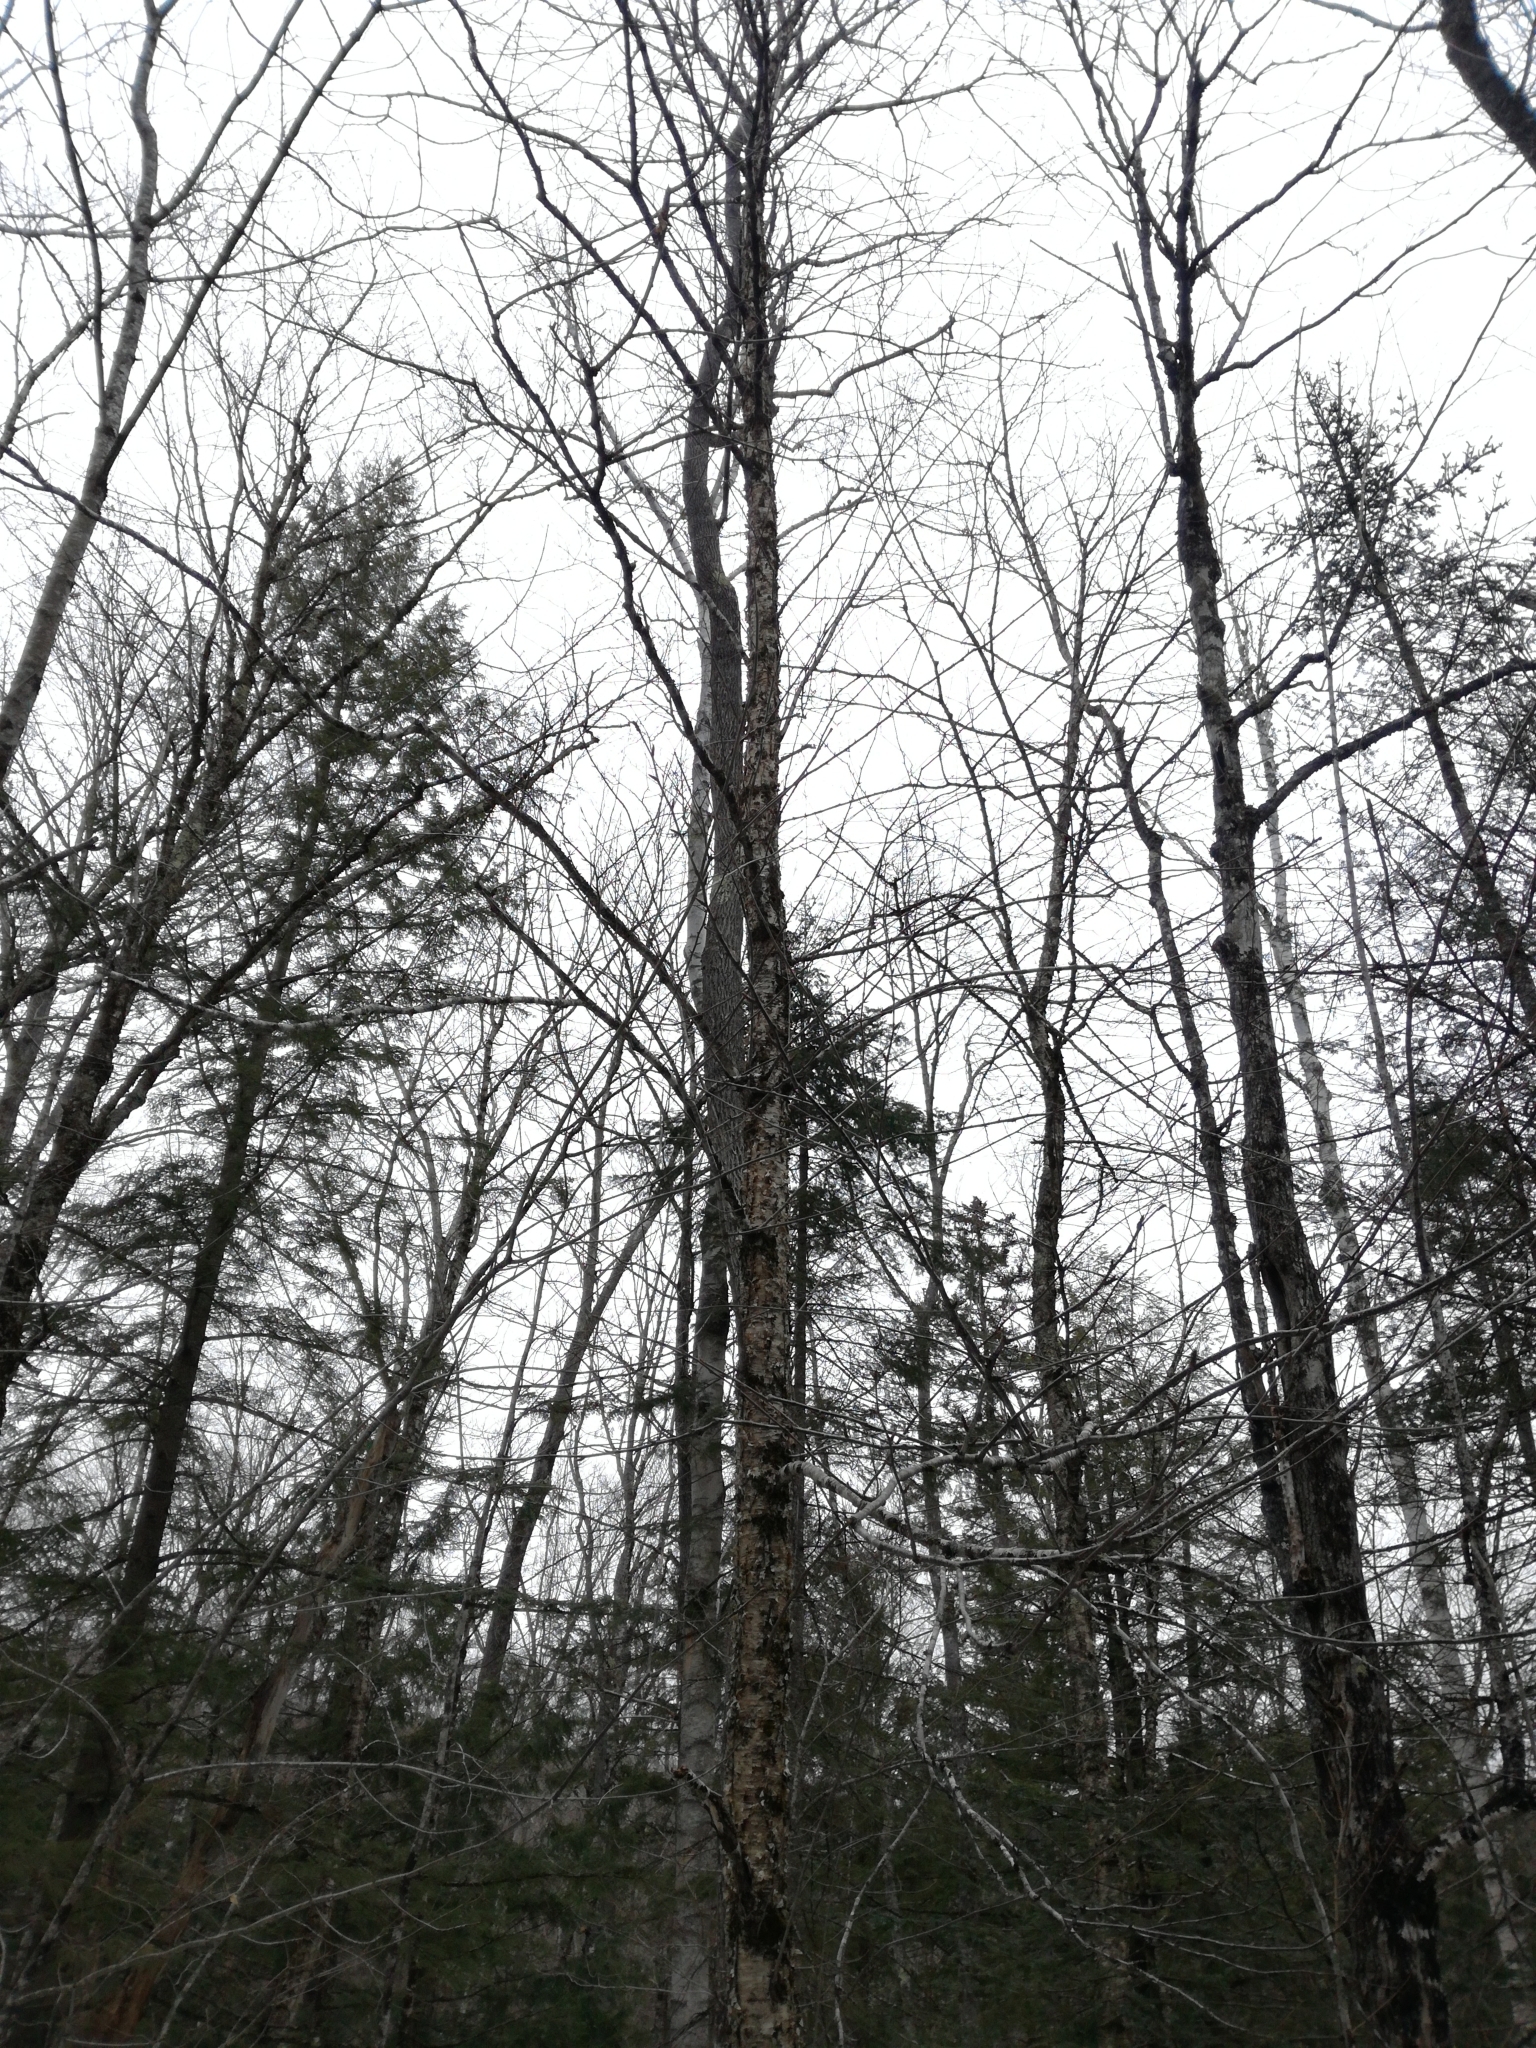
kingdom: Plantae
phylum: Tracheophyta
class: Magnoliopsida
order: Fagales
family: Betulaceae
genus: Betula
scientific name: Betula alleghaniensis
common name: Yellow birch
